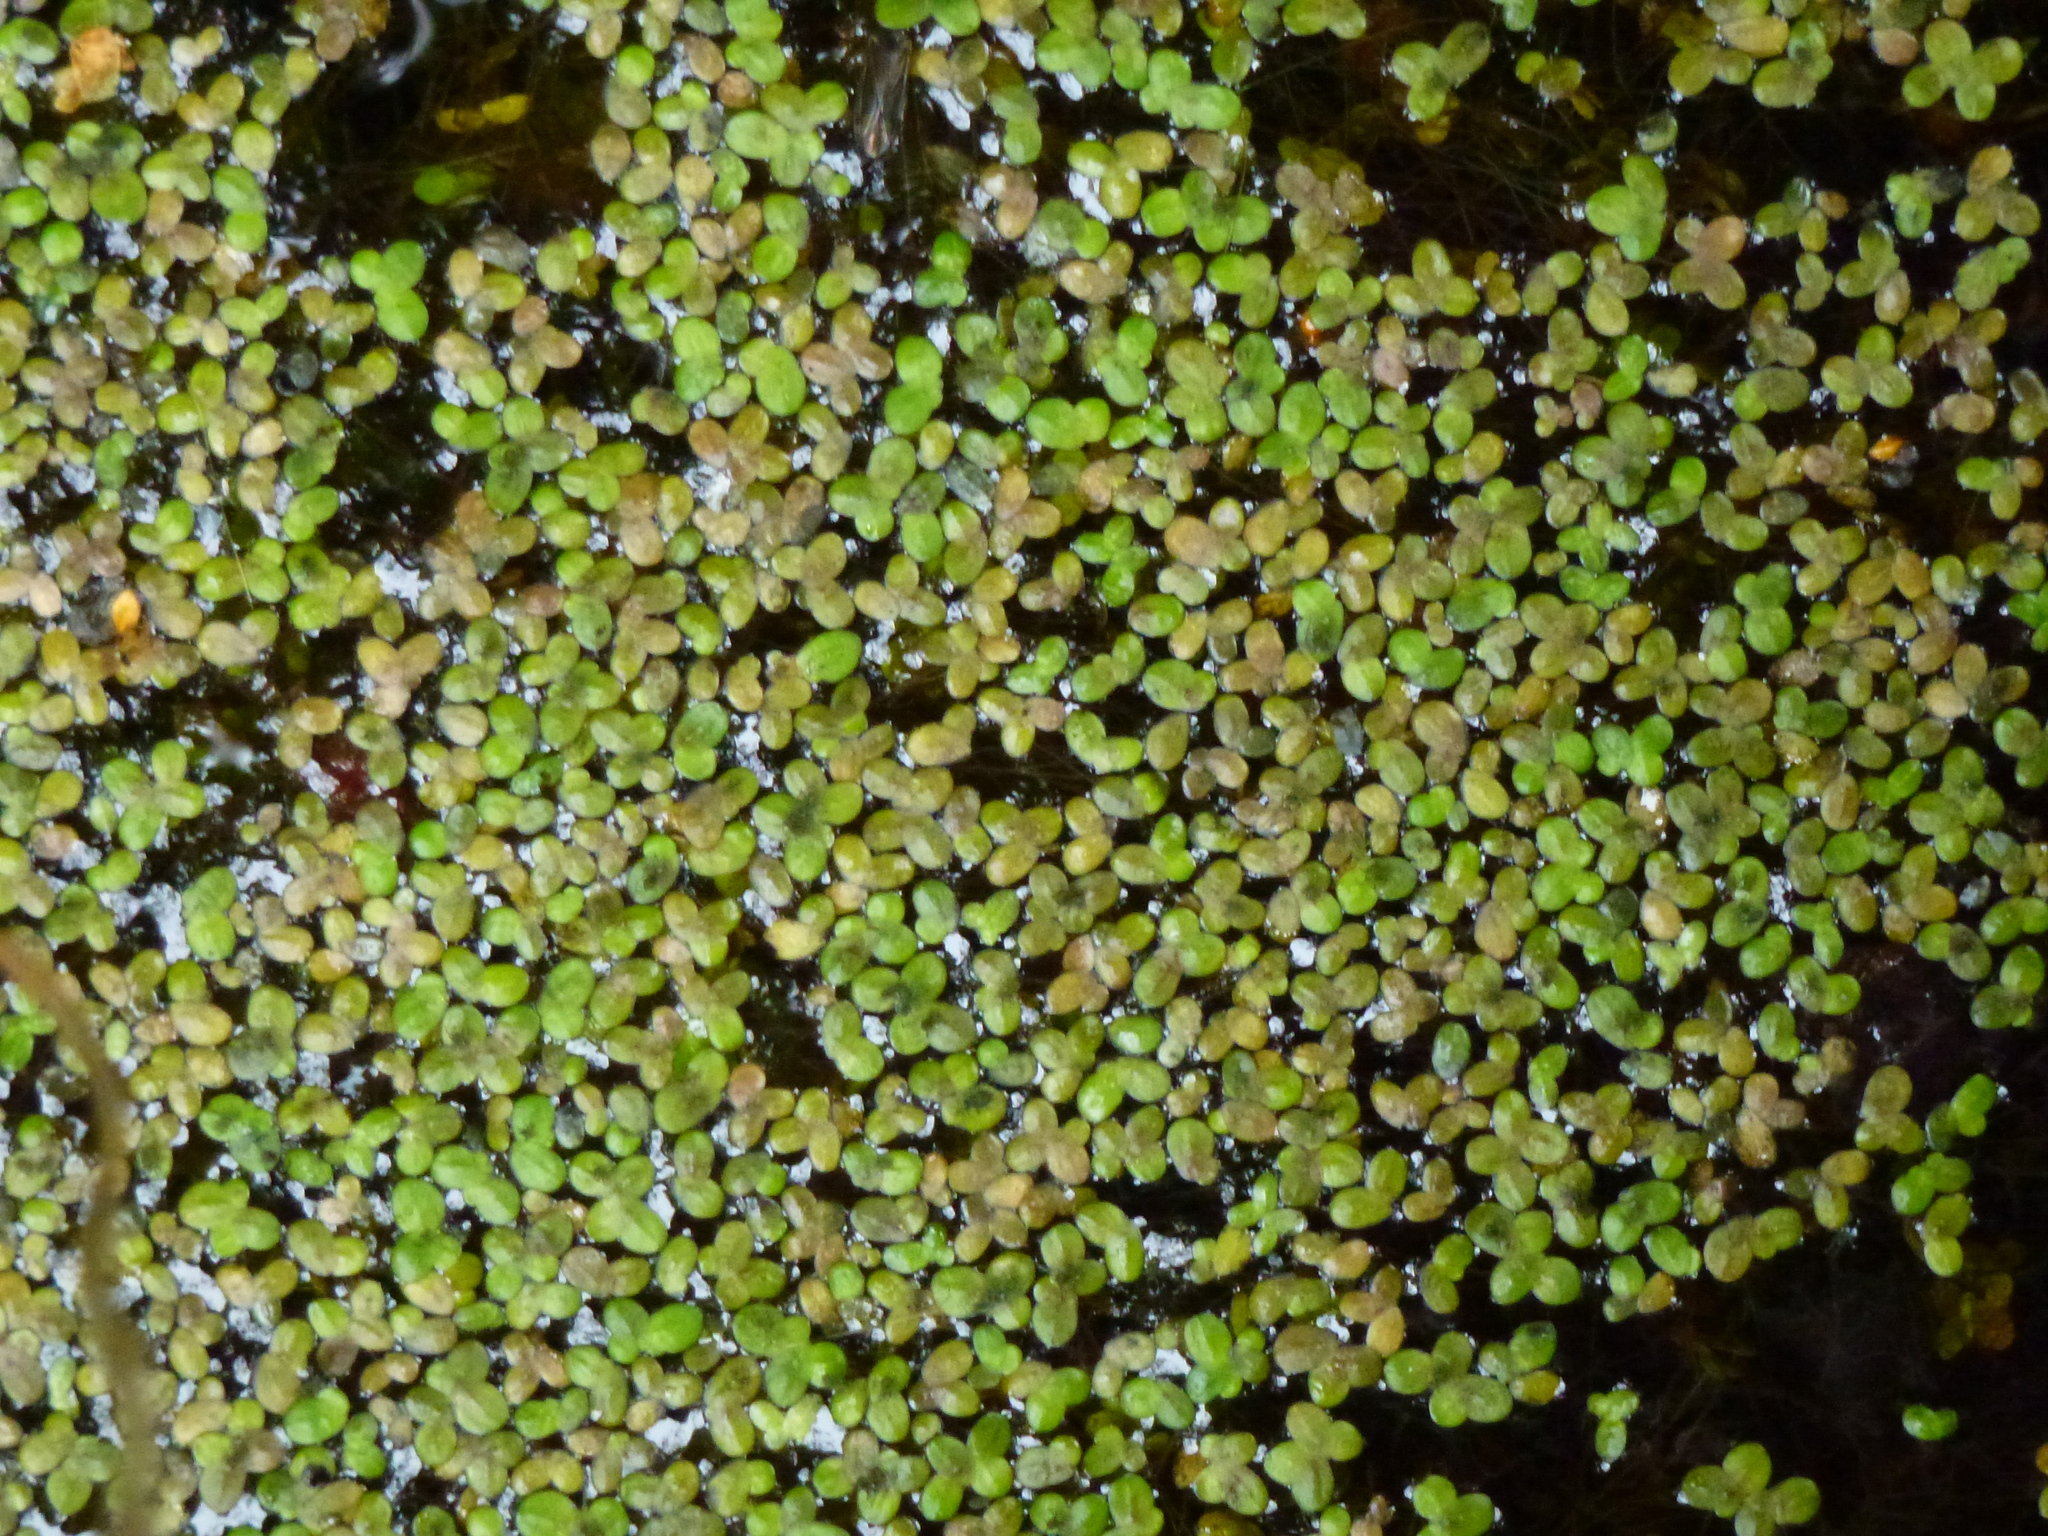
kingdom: Plantae
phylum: Tracheophyta
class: Liliopsida
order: Alismatales
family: Araceae
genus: Lemna
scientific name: Lemna minor
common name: Common duckweed
